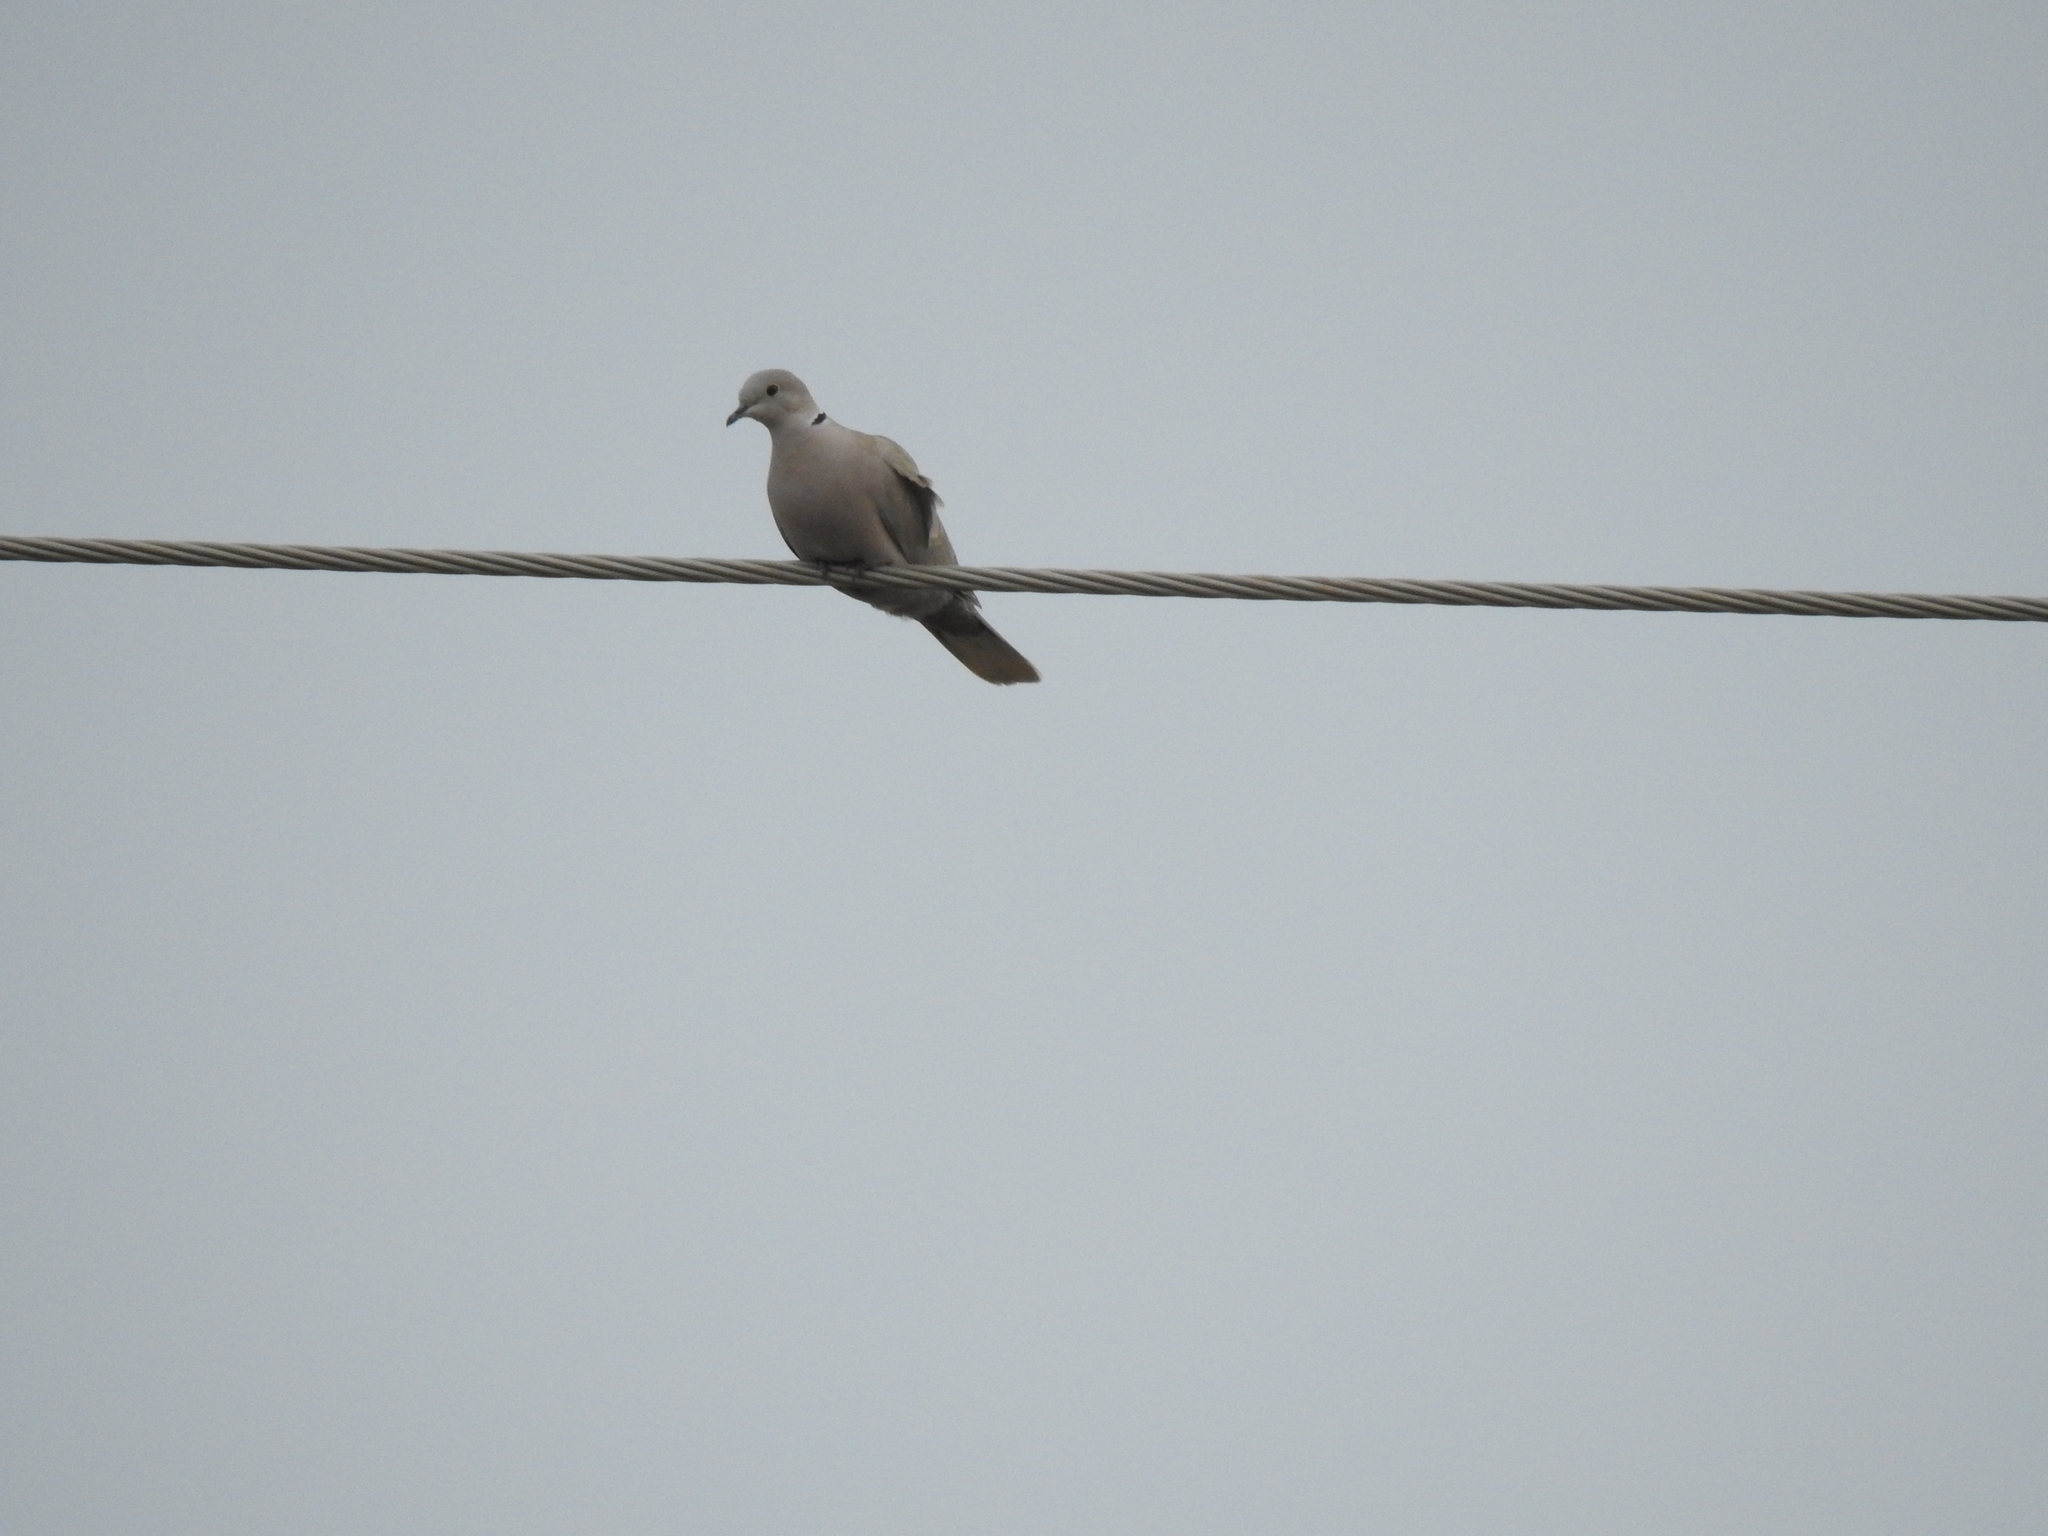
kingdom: Animalia
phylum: Chordata
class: Aves
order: Columbiformes
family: Columbidae
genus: Streptopelia
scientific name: Streptopelia decaocto
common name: Eurasian collared dove
